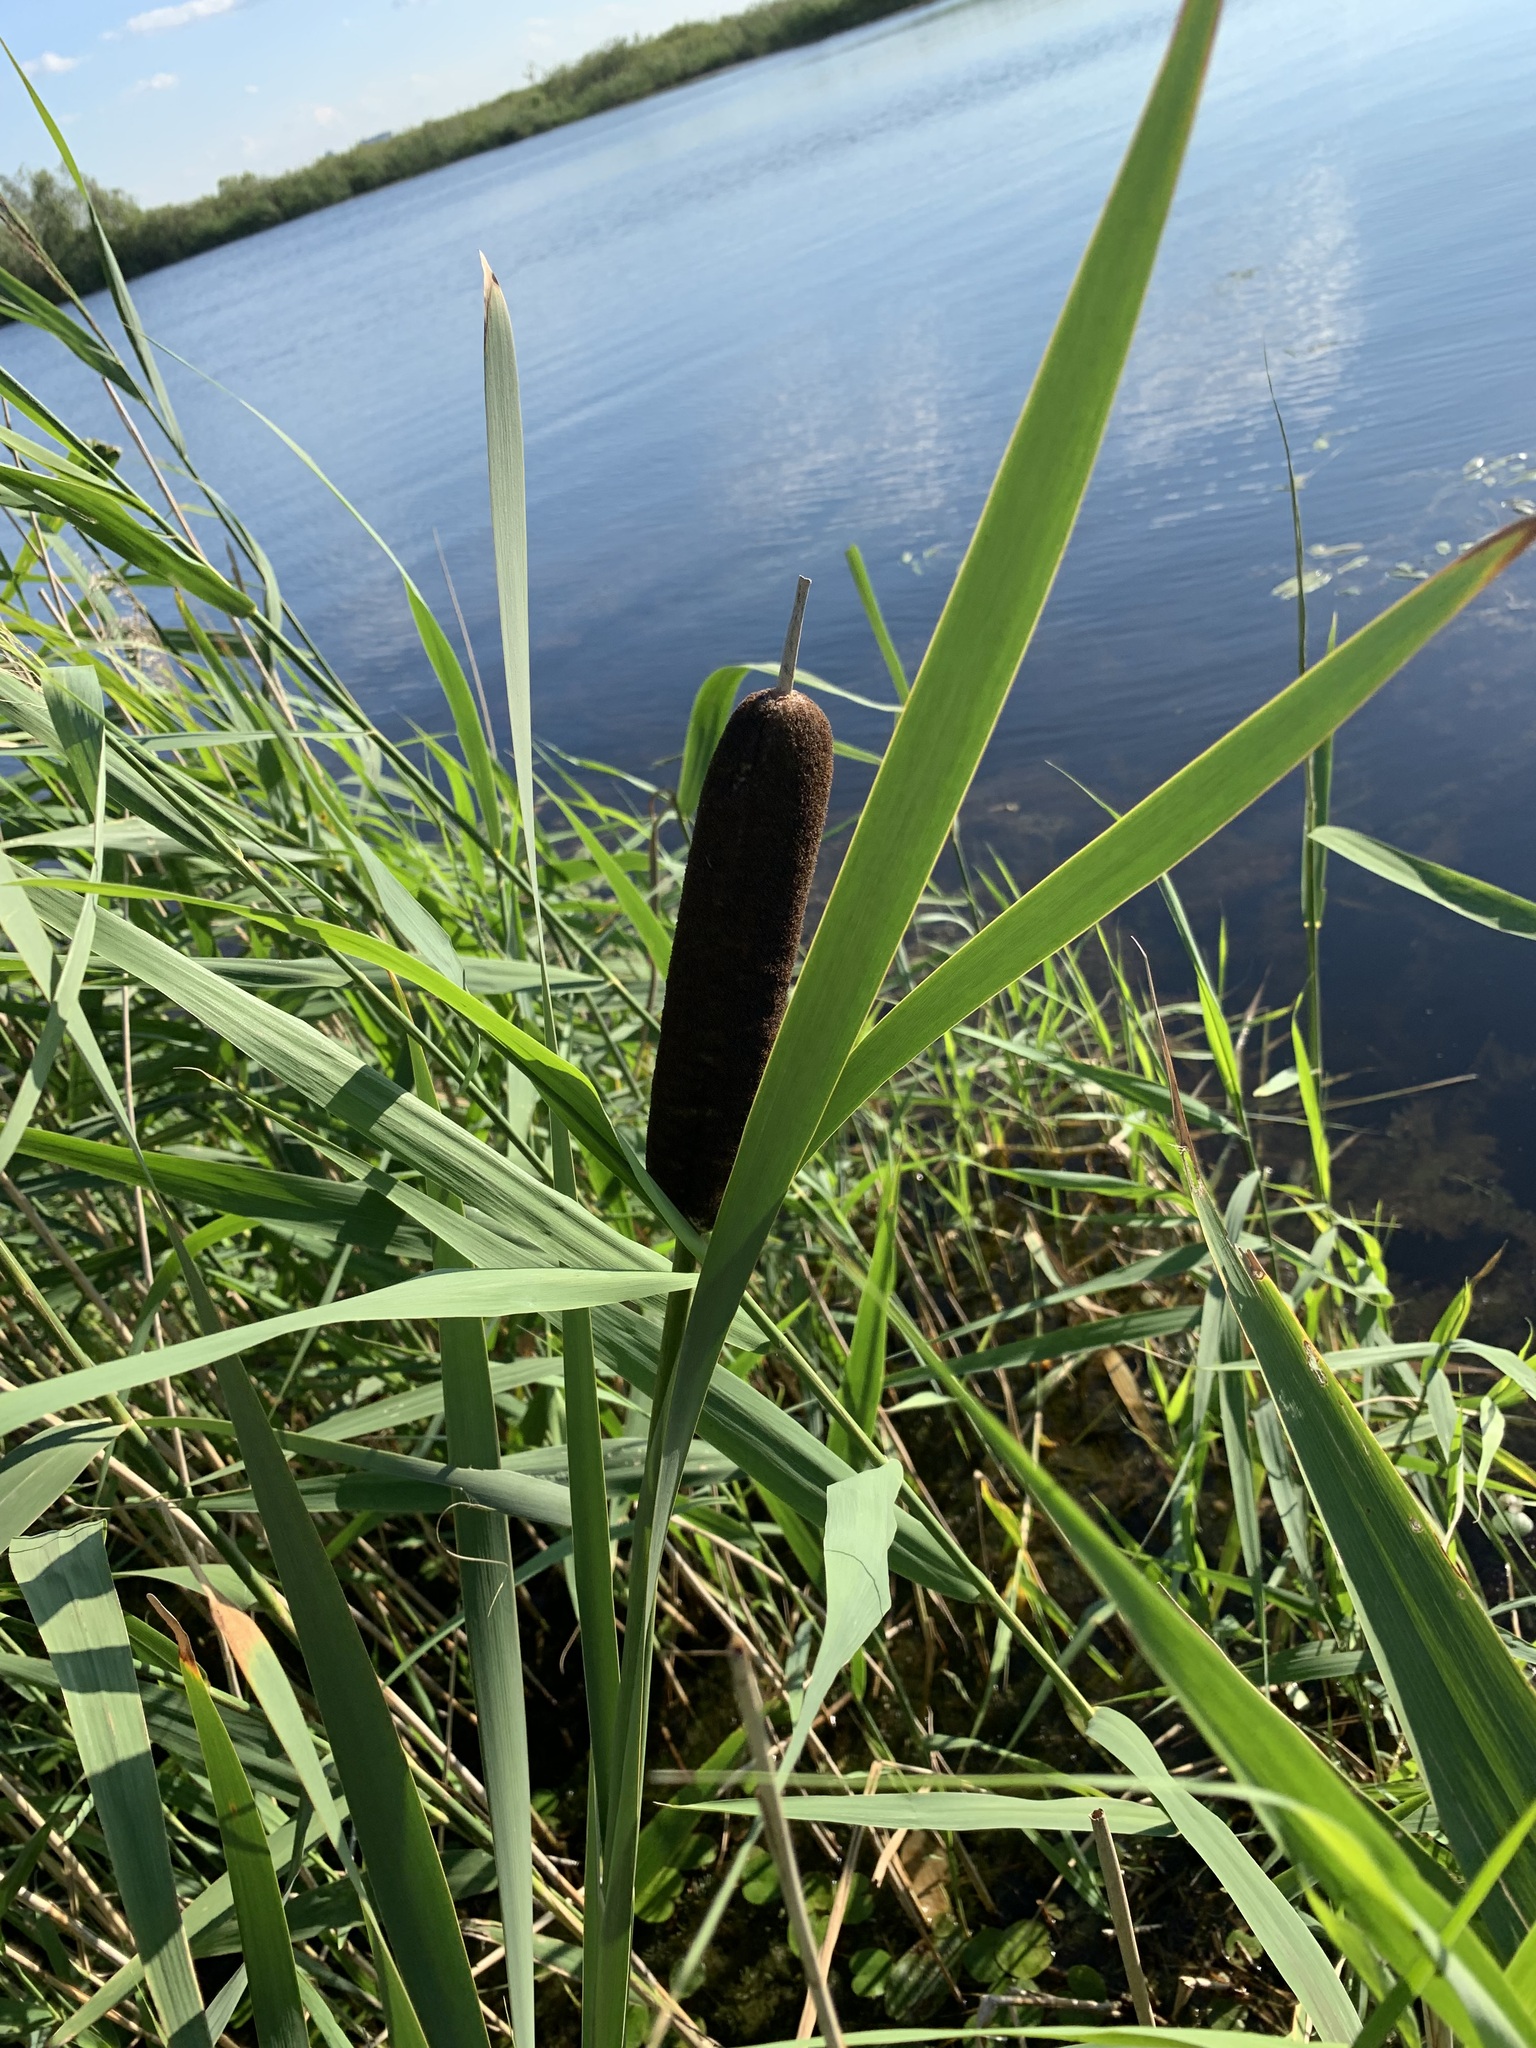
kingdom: Plantae
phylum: Tracheophyta
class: Liliopsida
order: Poales
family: Typhaceae
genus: Typha
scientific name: Typha latifolia
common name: Broadleaf cattail
